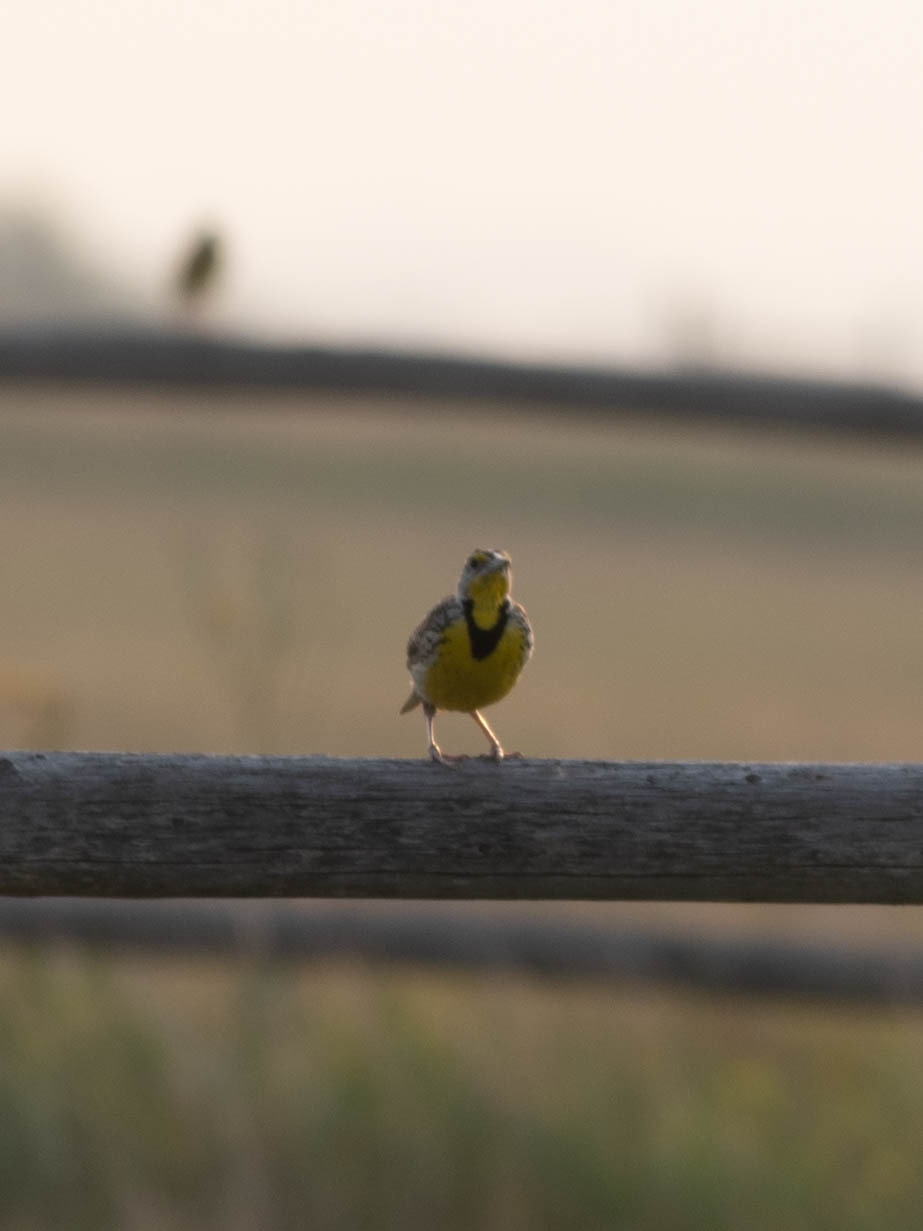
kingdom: Animalia
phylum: Chordata
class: Aves
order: Passeriformes
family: Icteridae
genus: Sturnella
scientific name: Sturnella neglecta
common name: Western meadowlark
